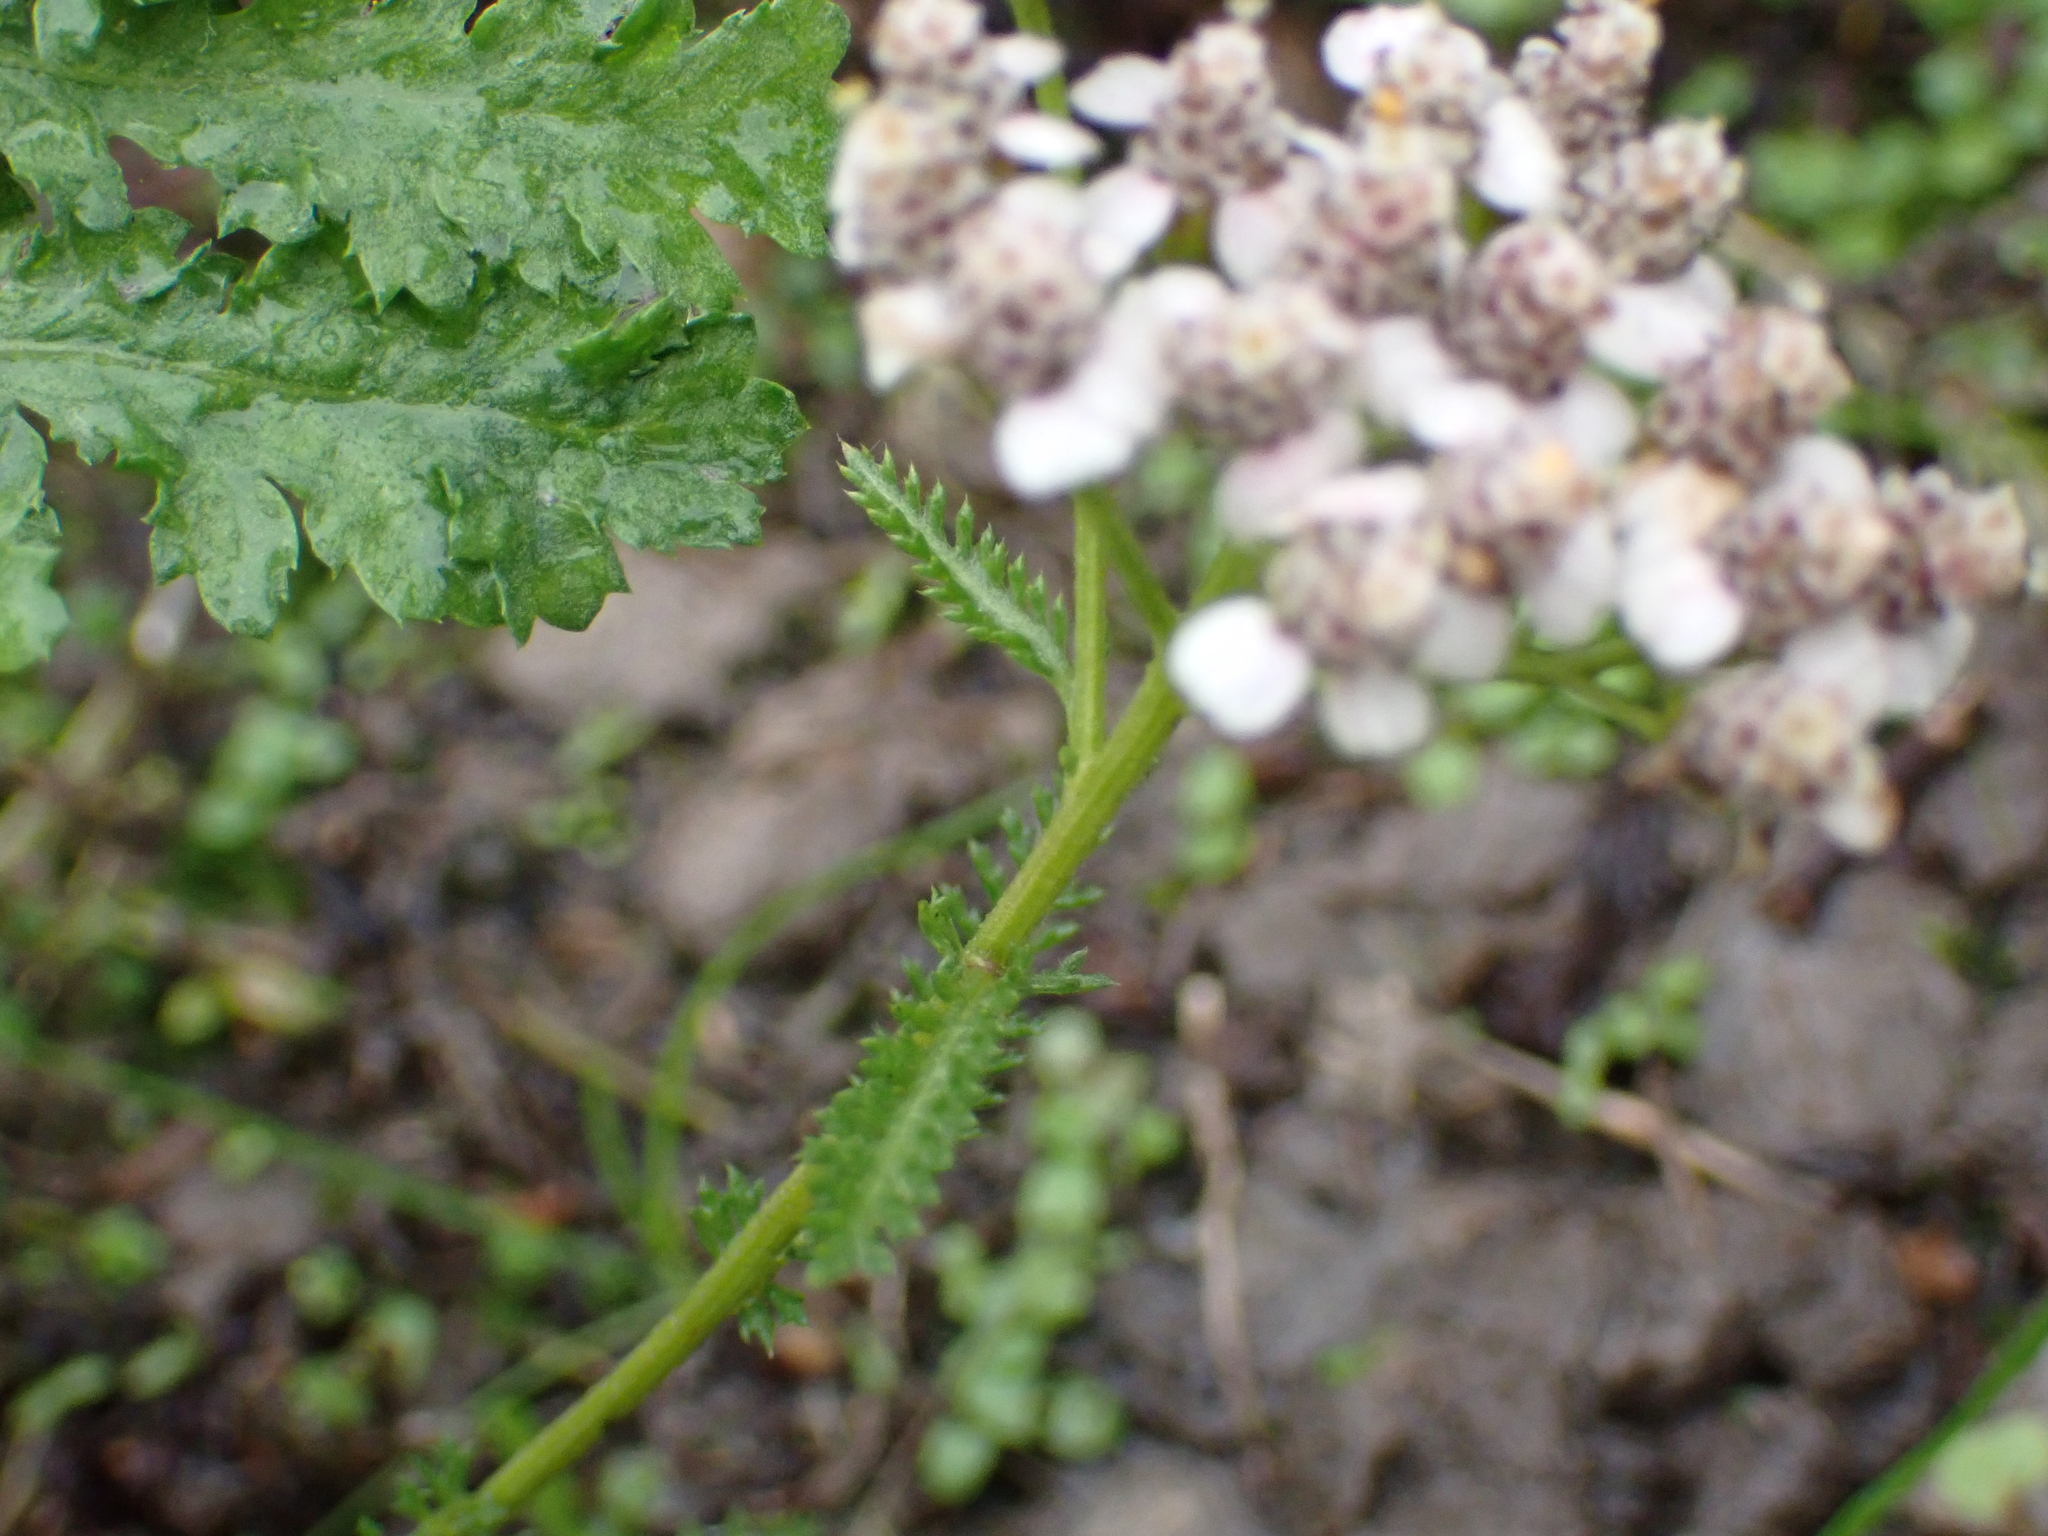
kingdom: Plantae
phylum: Tracheophyta
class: Magnoliopsida
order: Asterales
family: Asteraceae
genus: Achillea
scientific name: Achillea millefolium
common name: Yarrow
